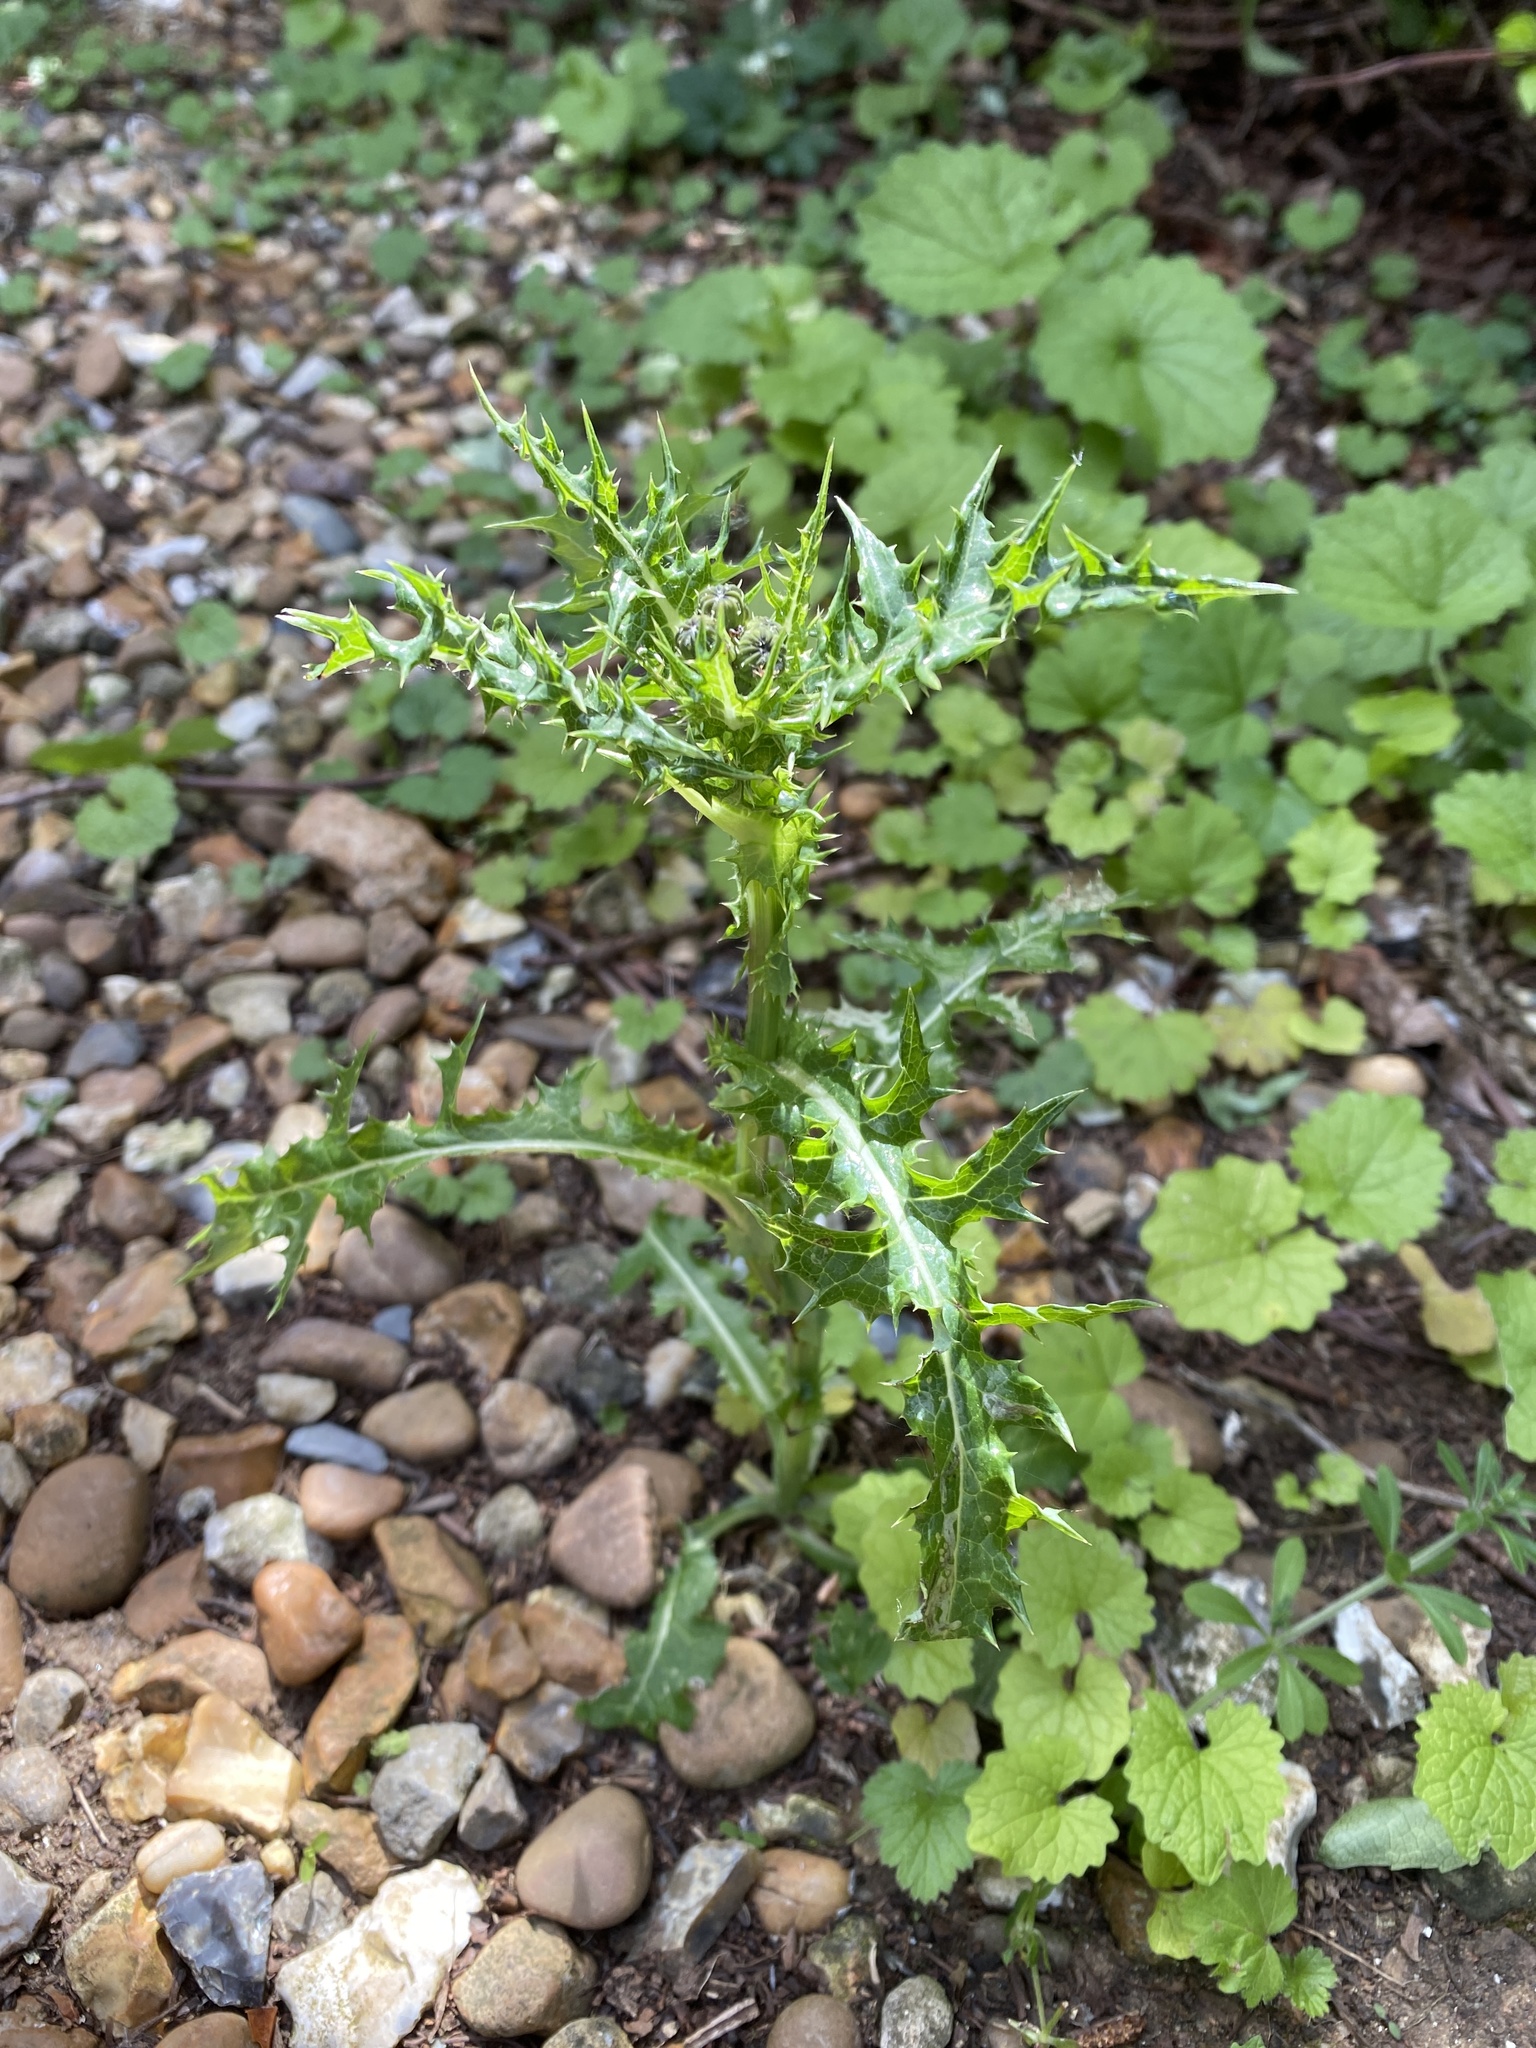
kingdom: Plantae
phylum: Tracheophyta
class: Magnoliopsida
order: Asterales
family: Asteraceae
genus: Sonchus
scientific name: Sonchus asper
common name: Prickly sow-thistle
